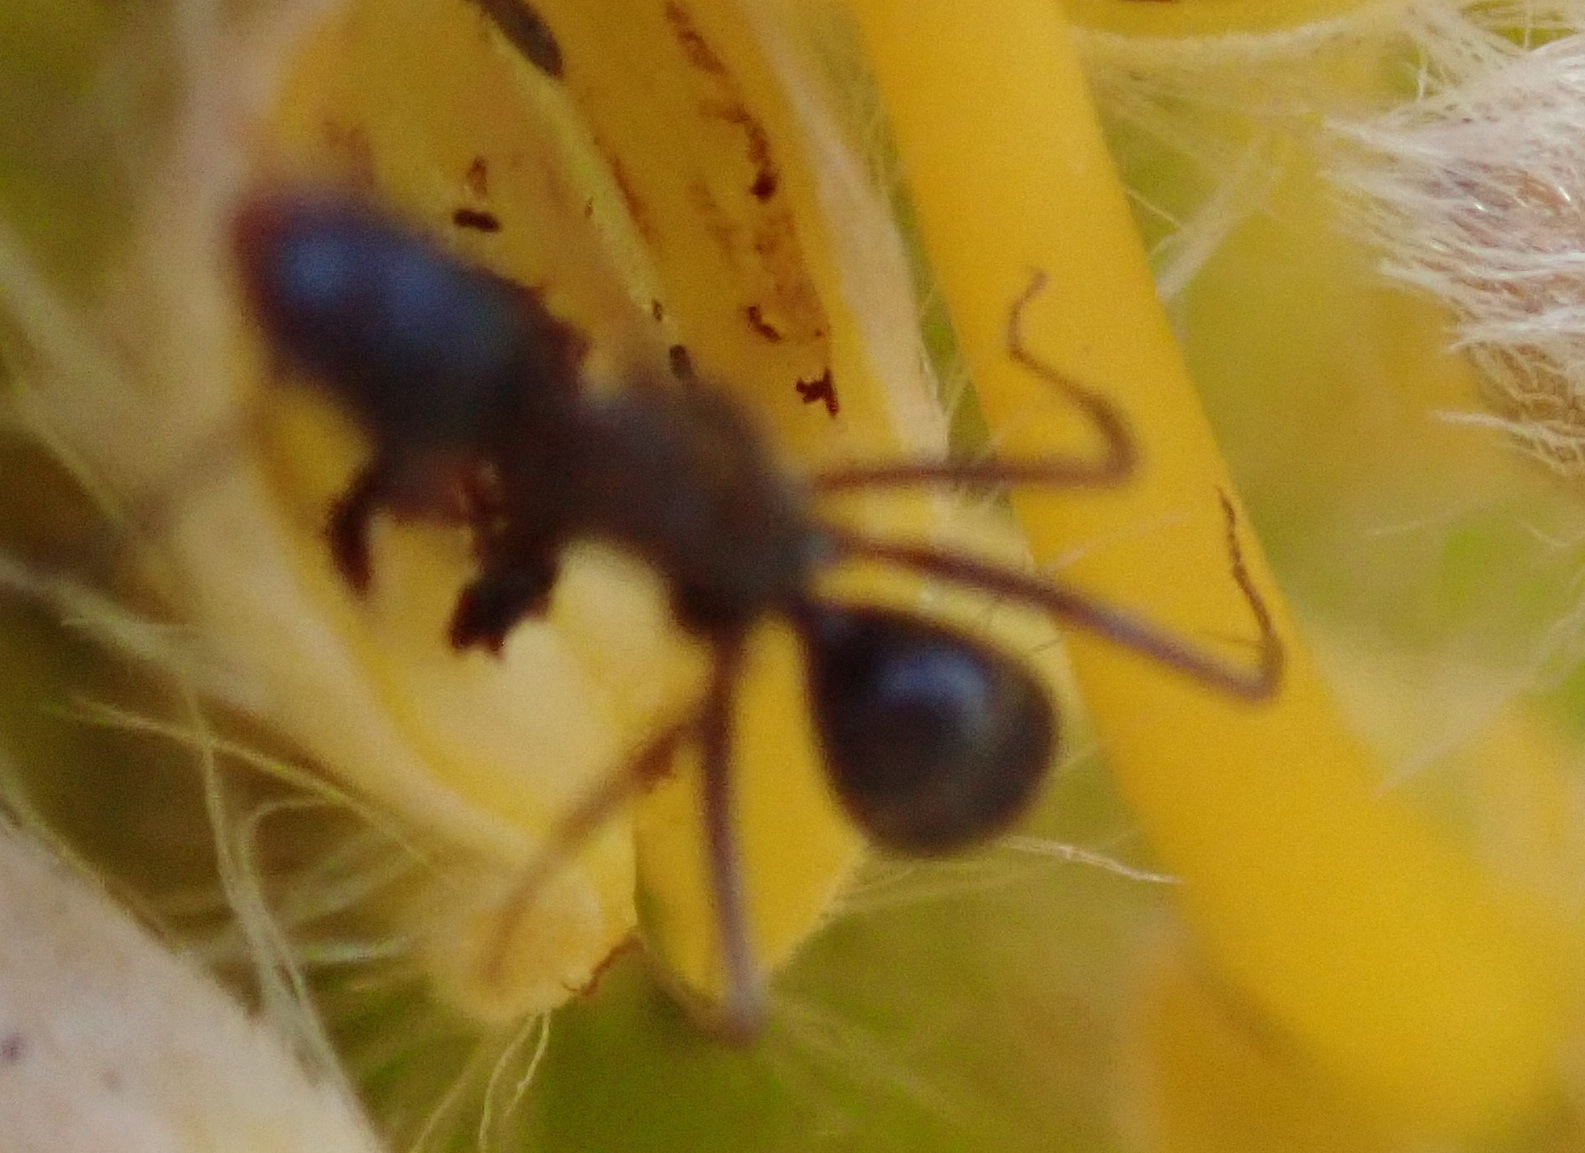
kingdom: Animalia
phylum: Arthropoda
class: Insecta
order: Hymenoptera
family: Formicidae
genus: Camponotus
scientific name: Camponotus vestitus
